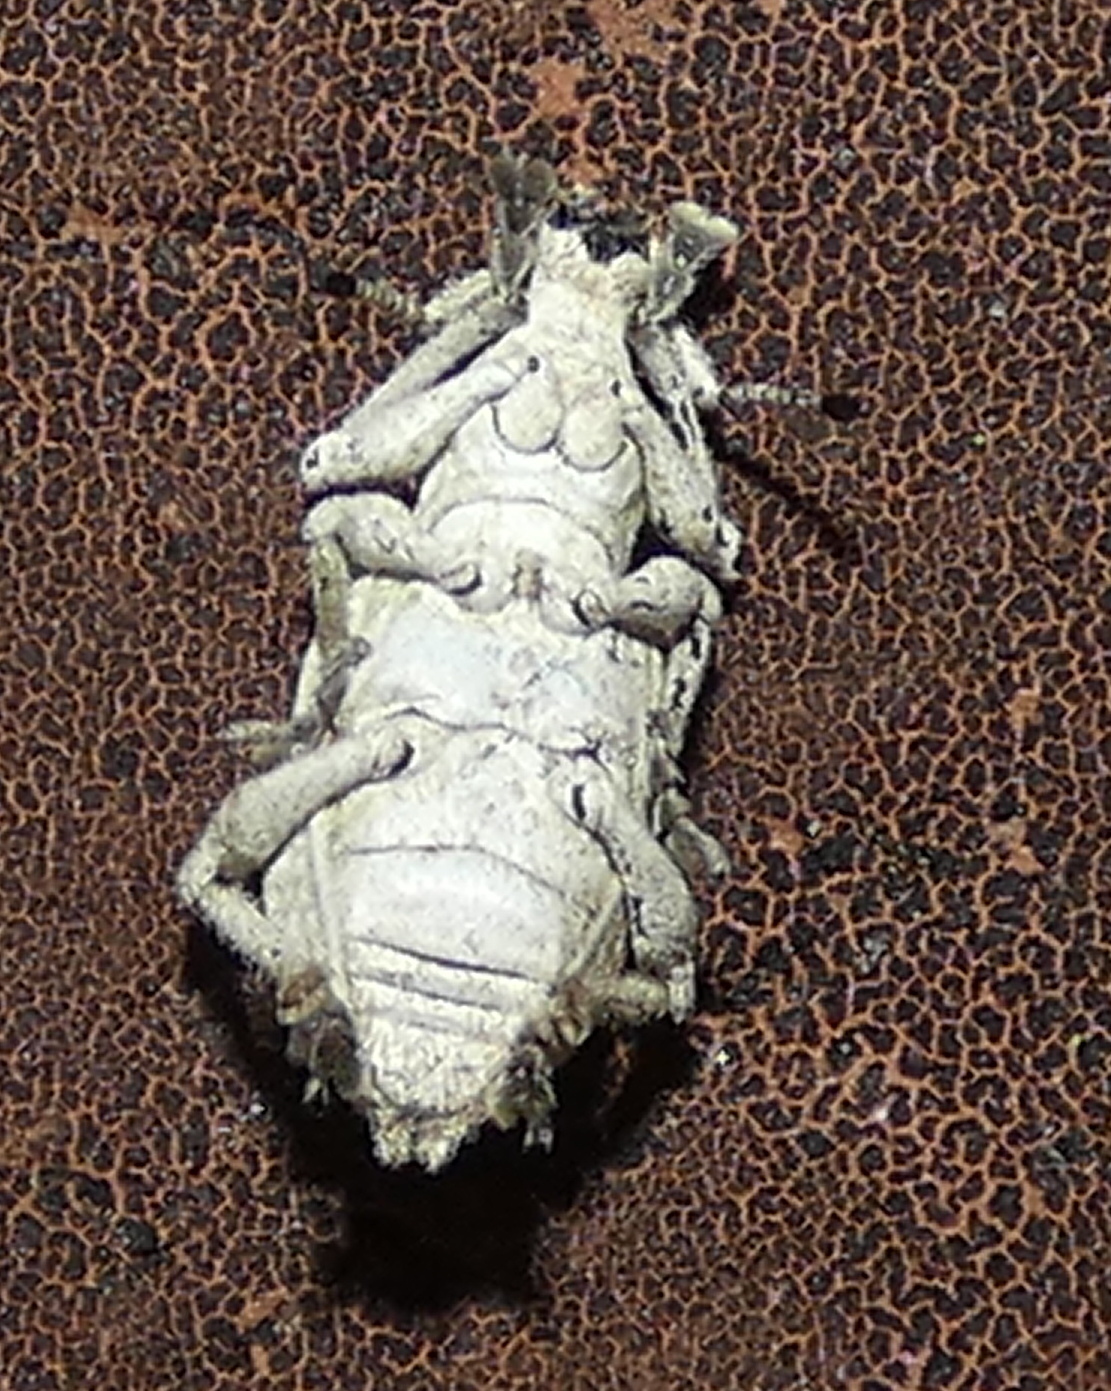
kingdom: Animalia
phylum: Arthropoda
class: Insecta
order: Coleoptera
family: Curculionidae
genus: Compsus
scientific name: Compsus niveus
